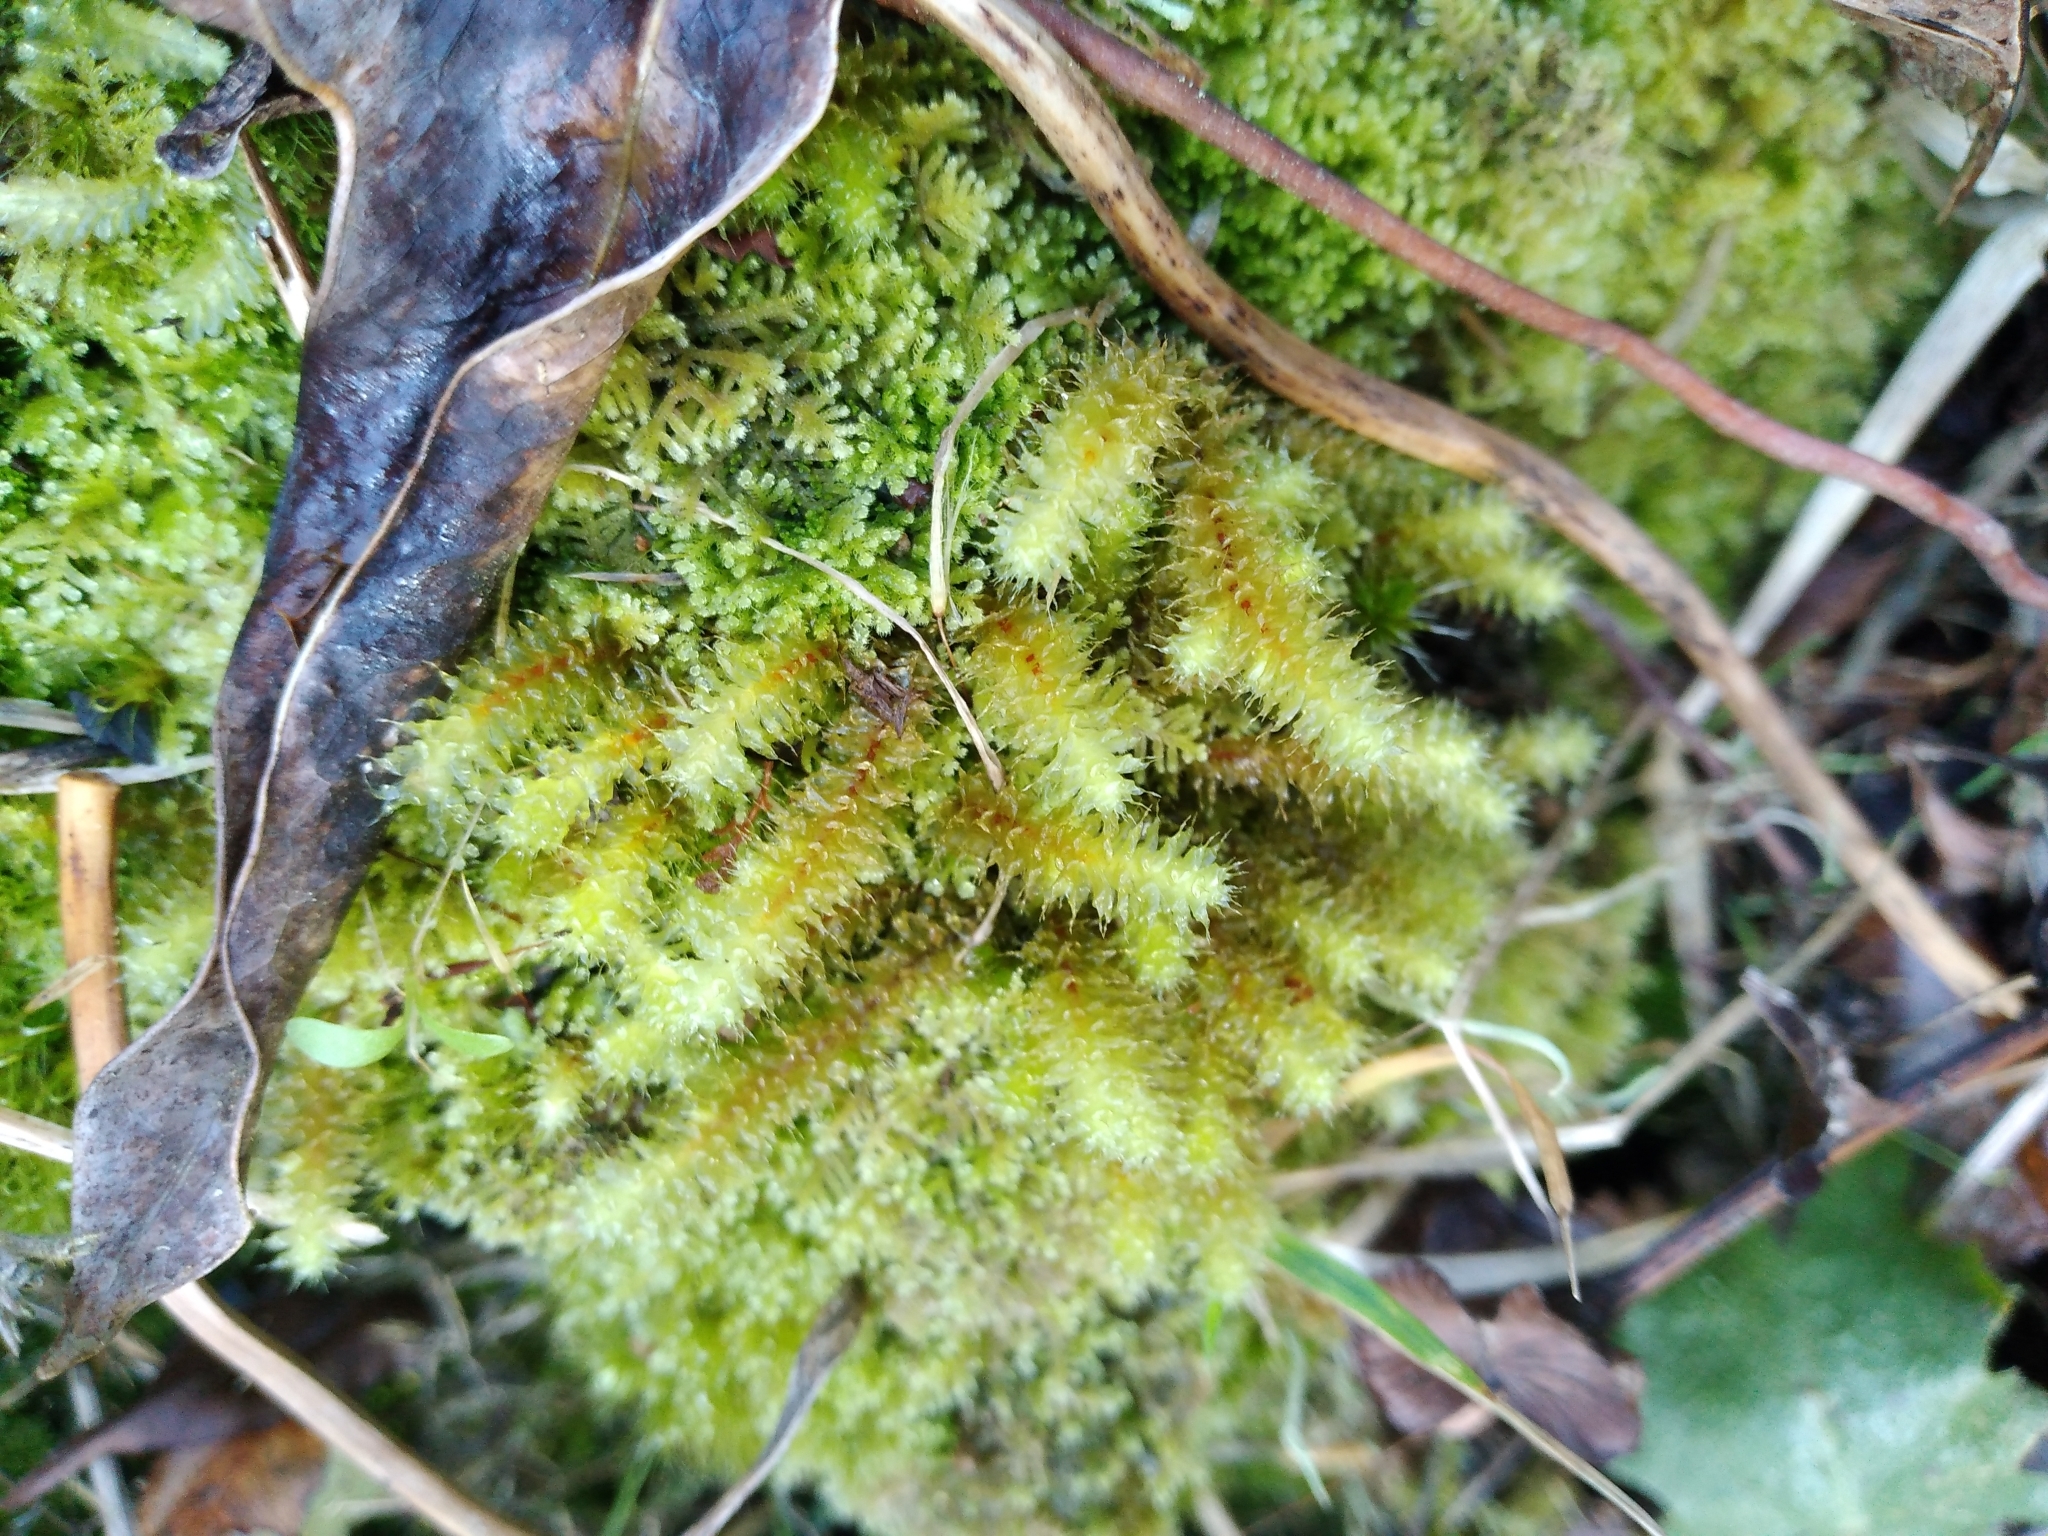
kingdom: Plantae
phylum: Bryophyta
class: Bryopsida
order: Ptychomniales
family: Ptychomniaceae
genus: Ptychomnion
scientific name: Ptychomnion aciculare
